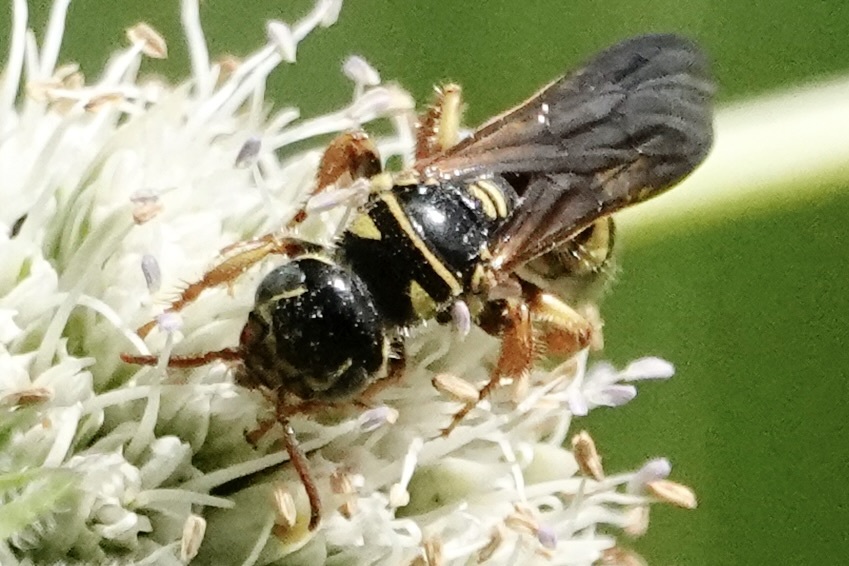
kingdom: Animalia
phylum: Arthropoda
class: Insecta
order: Hymenoptera
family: Tiphiidae
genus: Myzinum
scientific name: Myzinum quinquecinctum
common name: Five-banded thynnid wasp
